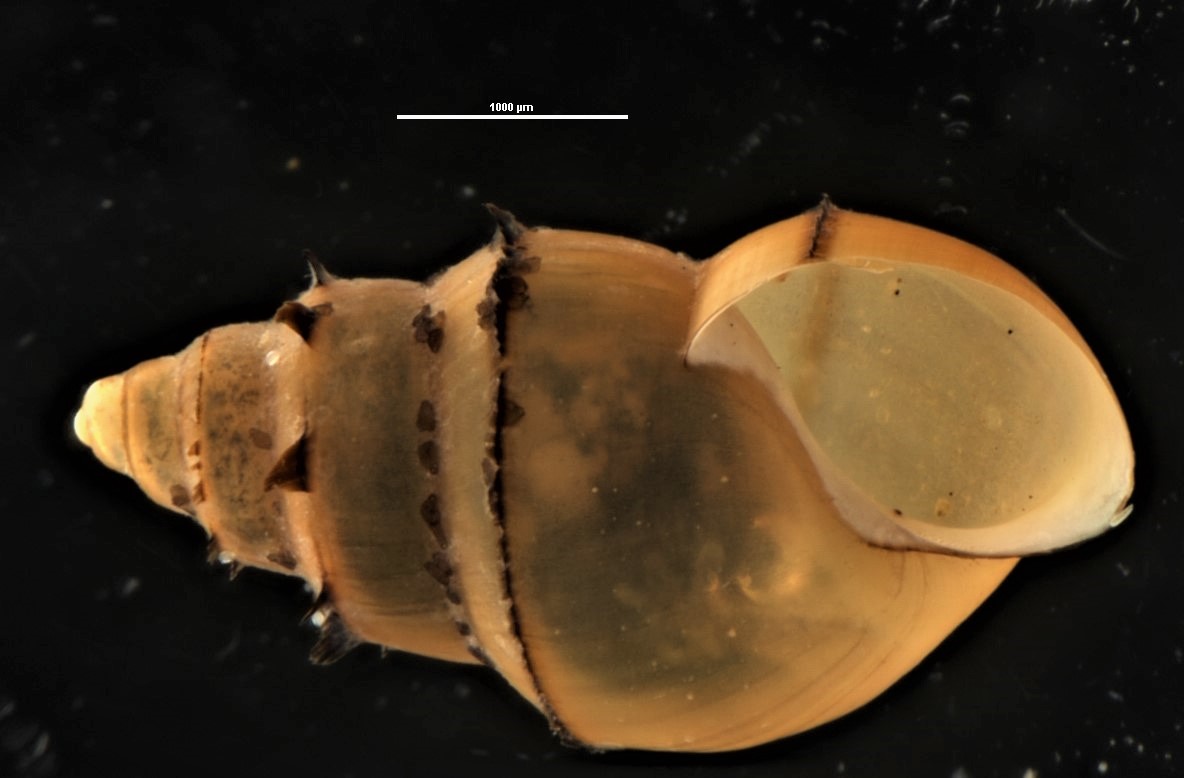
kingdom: Animalia
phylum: Mollusca
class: Gastropoda
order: Littorinimorpha
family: Tateidae
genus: Potamopyrgus
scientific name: Potamopyrgus antipodarum
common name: Jenkins' spire snail
